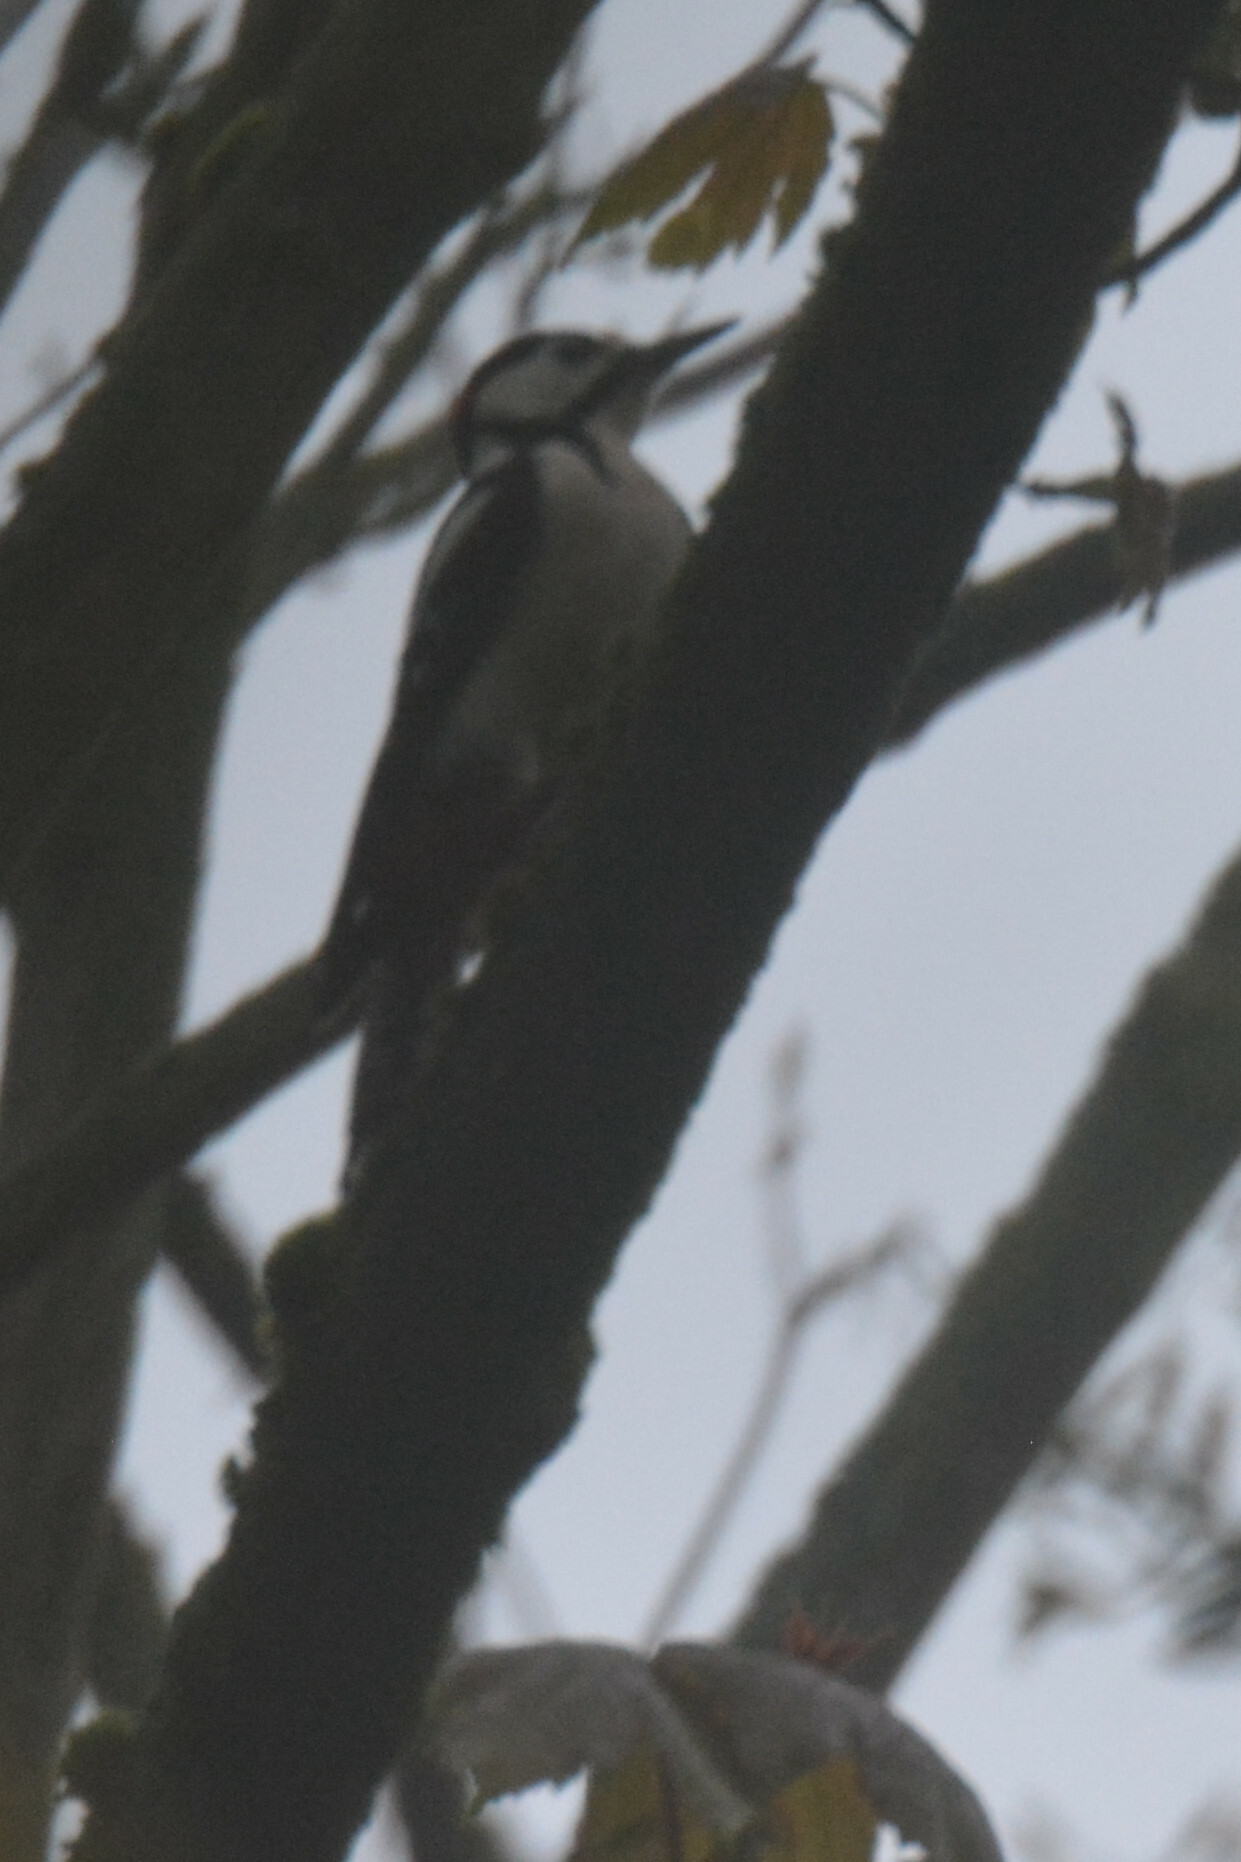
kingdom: Animalia
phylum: Chordata
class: Aves
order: Piciformes
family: Picidae
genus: Dendrocopos
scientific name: Dendrocopos major
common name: Great spotted woodpecker
